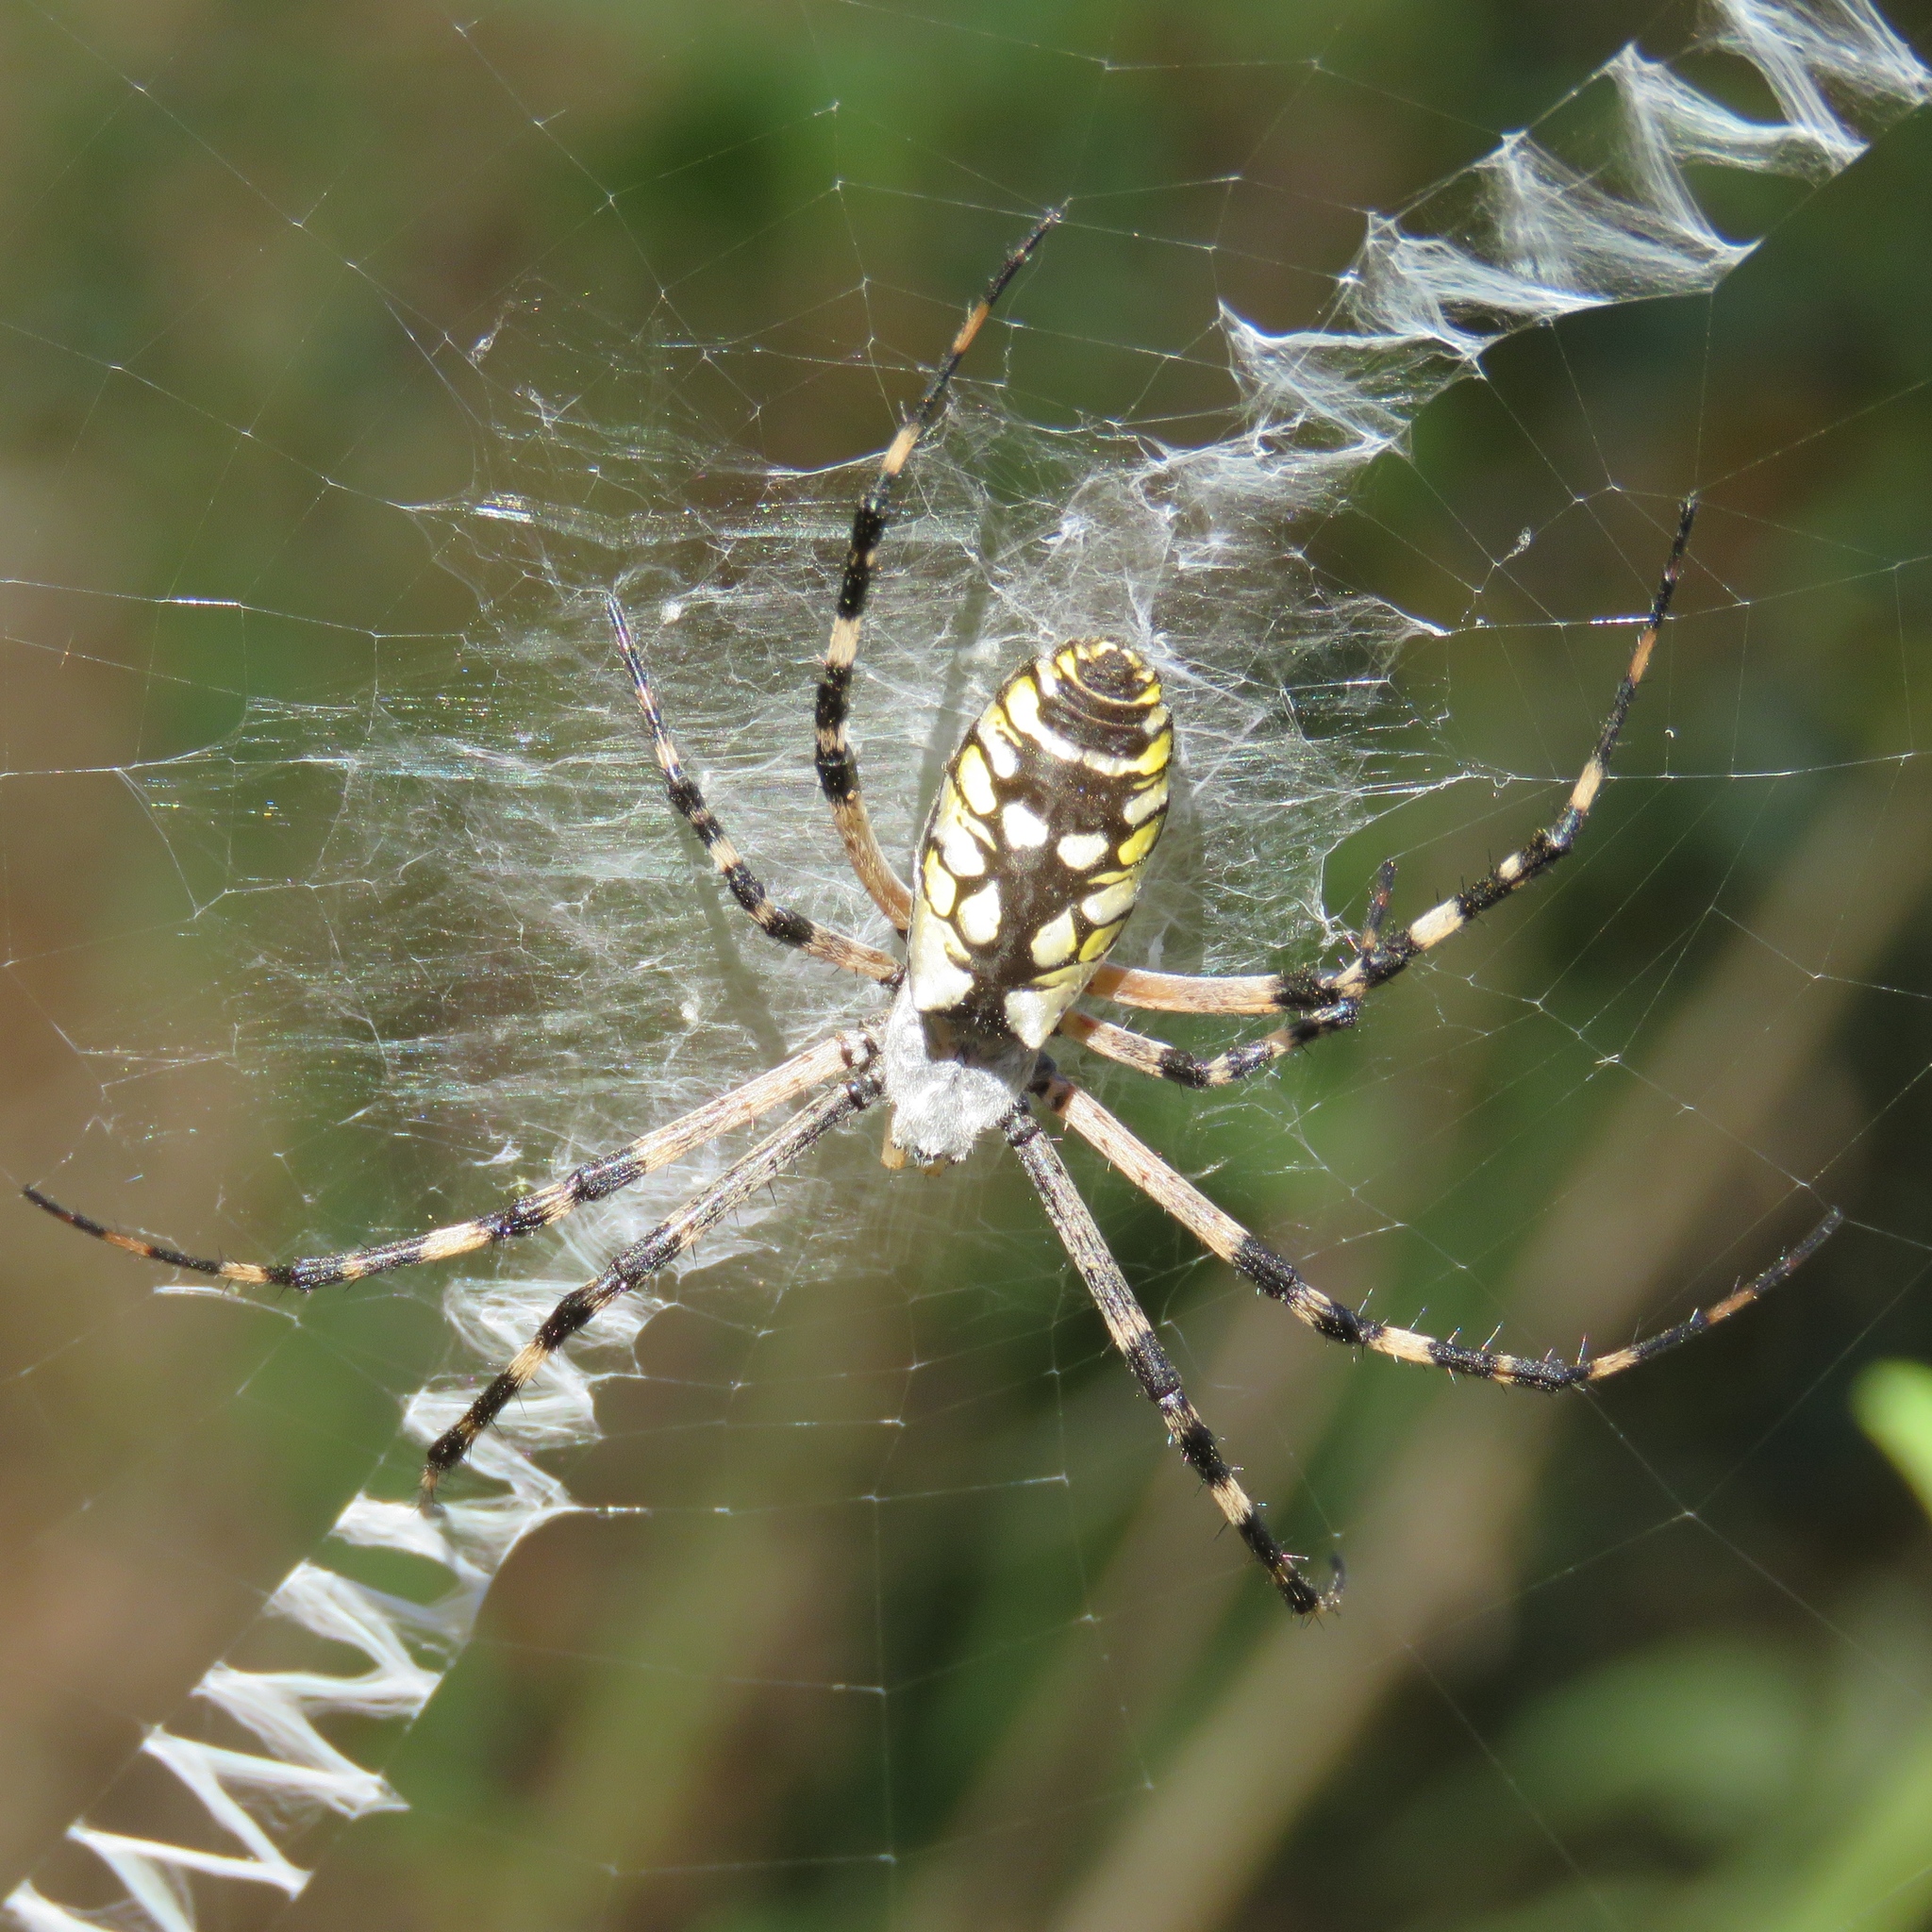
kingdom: Animalia
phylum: Arthropoda
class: Arachnida
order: Araneae
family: Araneidae
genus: Argiope
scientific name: Argiope aurantia
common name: Orb weavers
